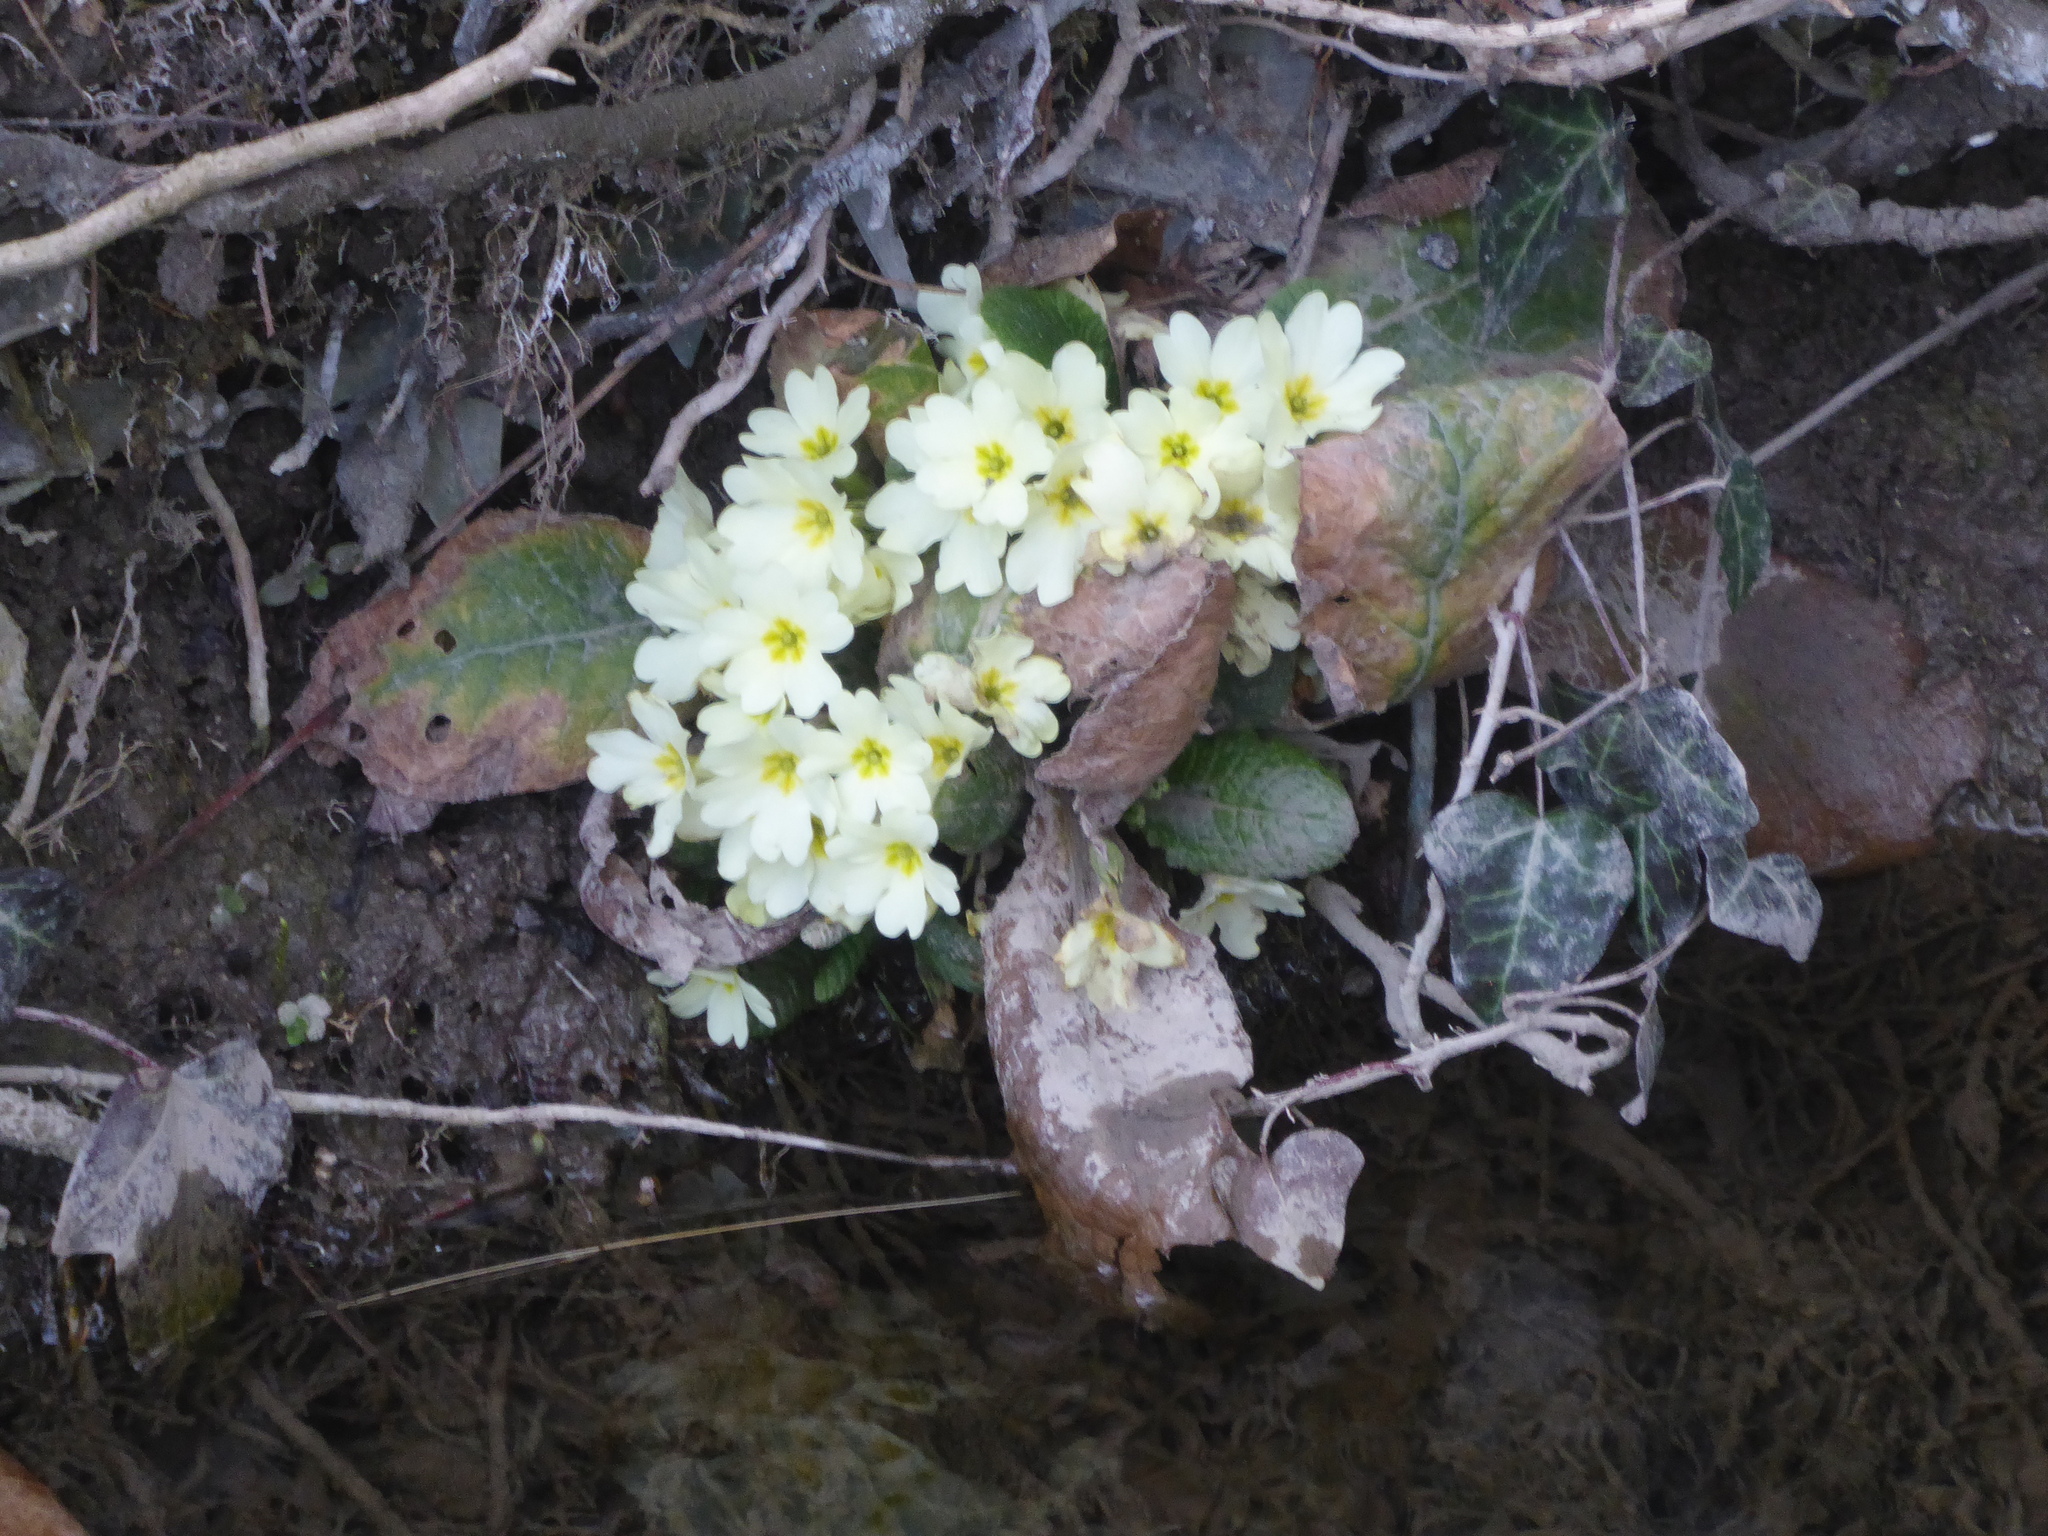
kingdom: Plantae
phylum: Tracheophyta
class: Magnoliopsida
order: Ericales
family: Primulaceae
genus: Primula
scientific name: Primula vulgaris
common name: Primrose
